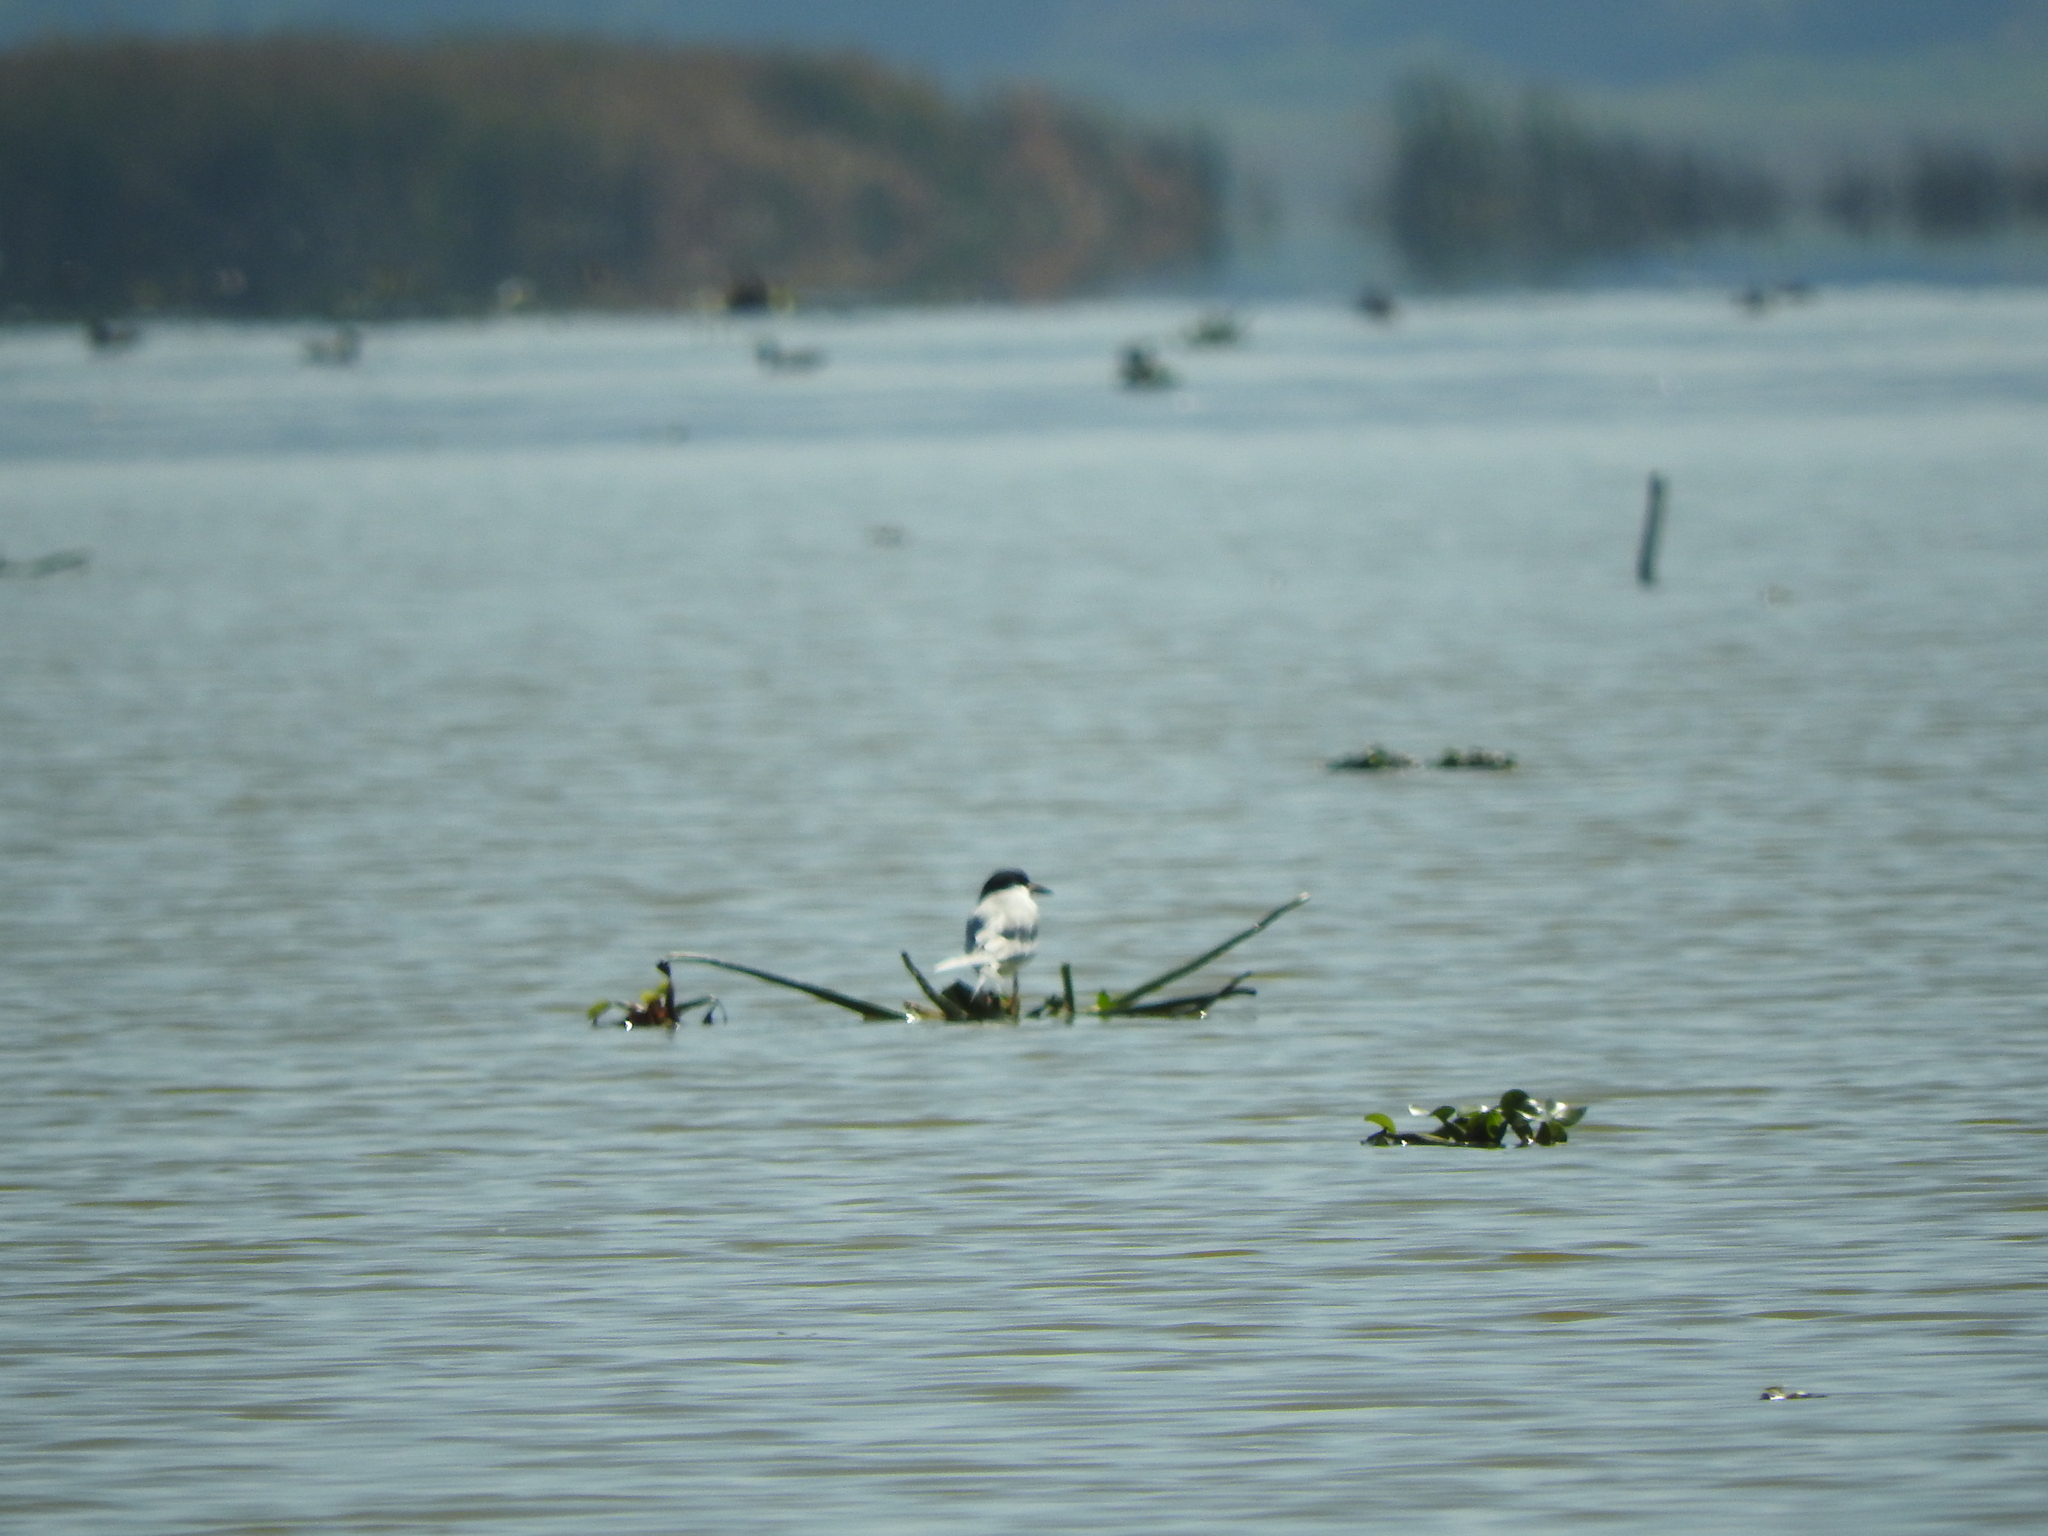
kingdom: Animalia
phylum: Chordata
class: Aves
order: Charadriiformes
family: Laridae
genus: Sterna
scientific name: Sterna forsteri
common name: Forster's tern
